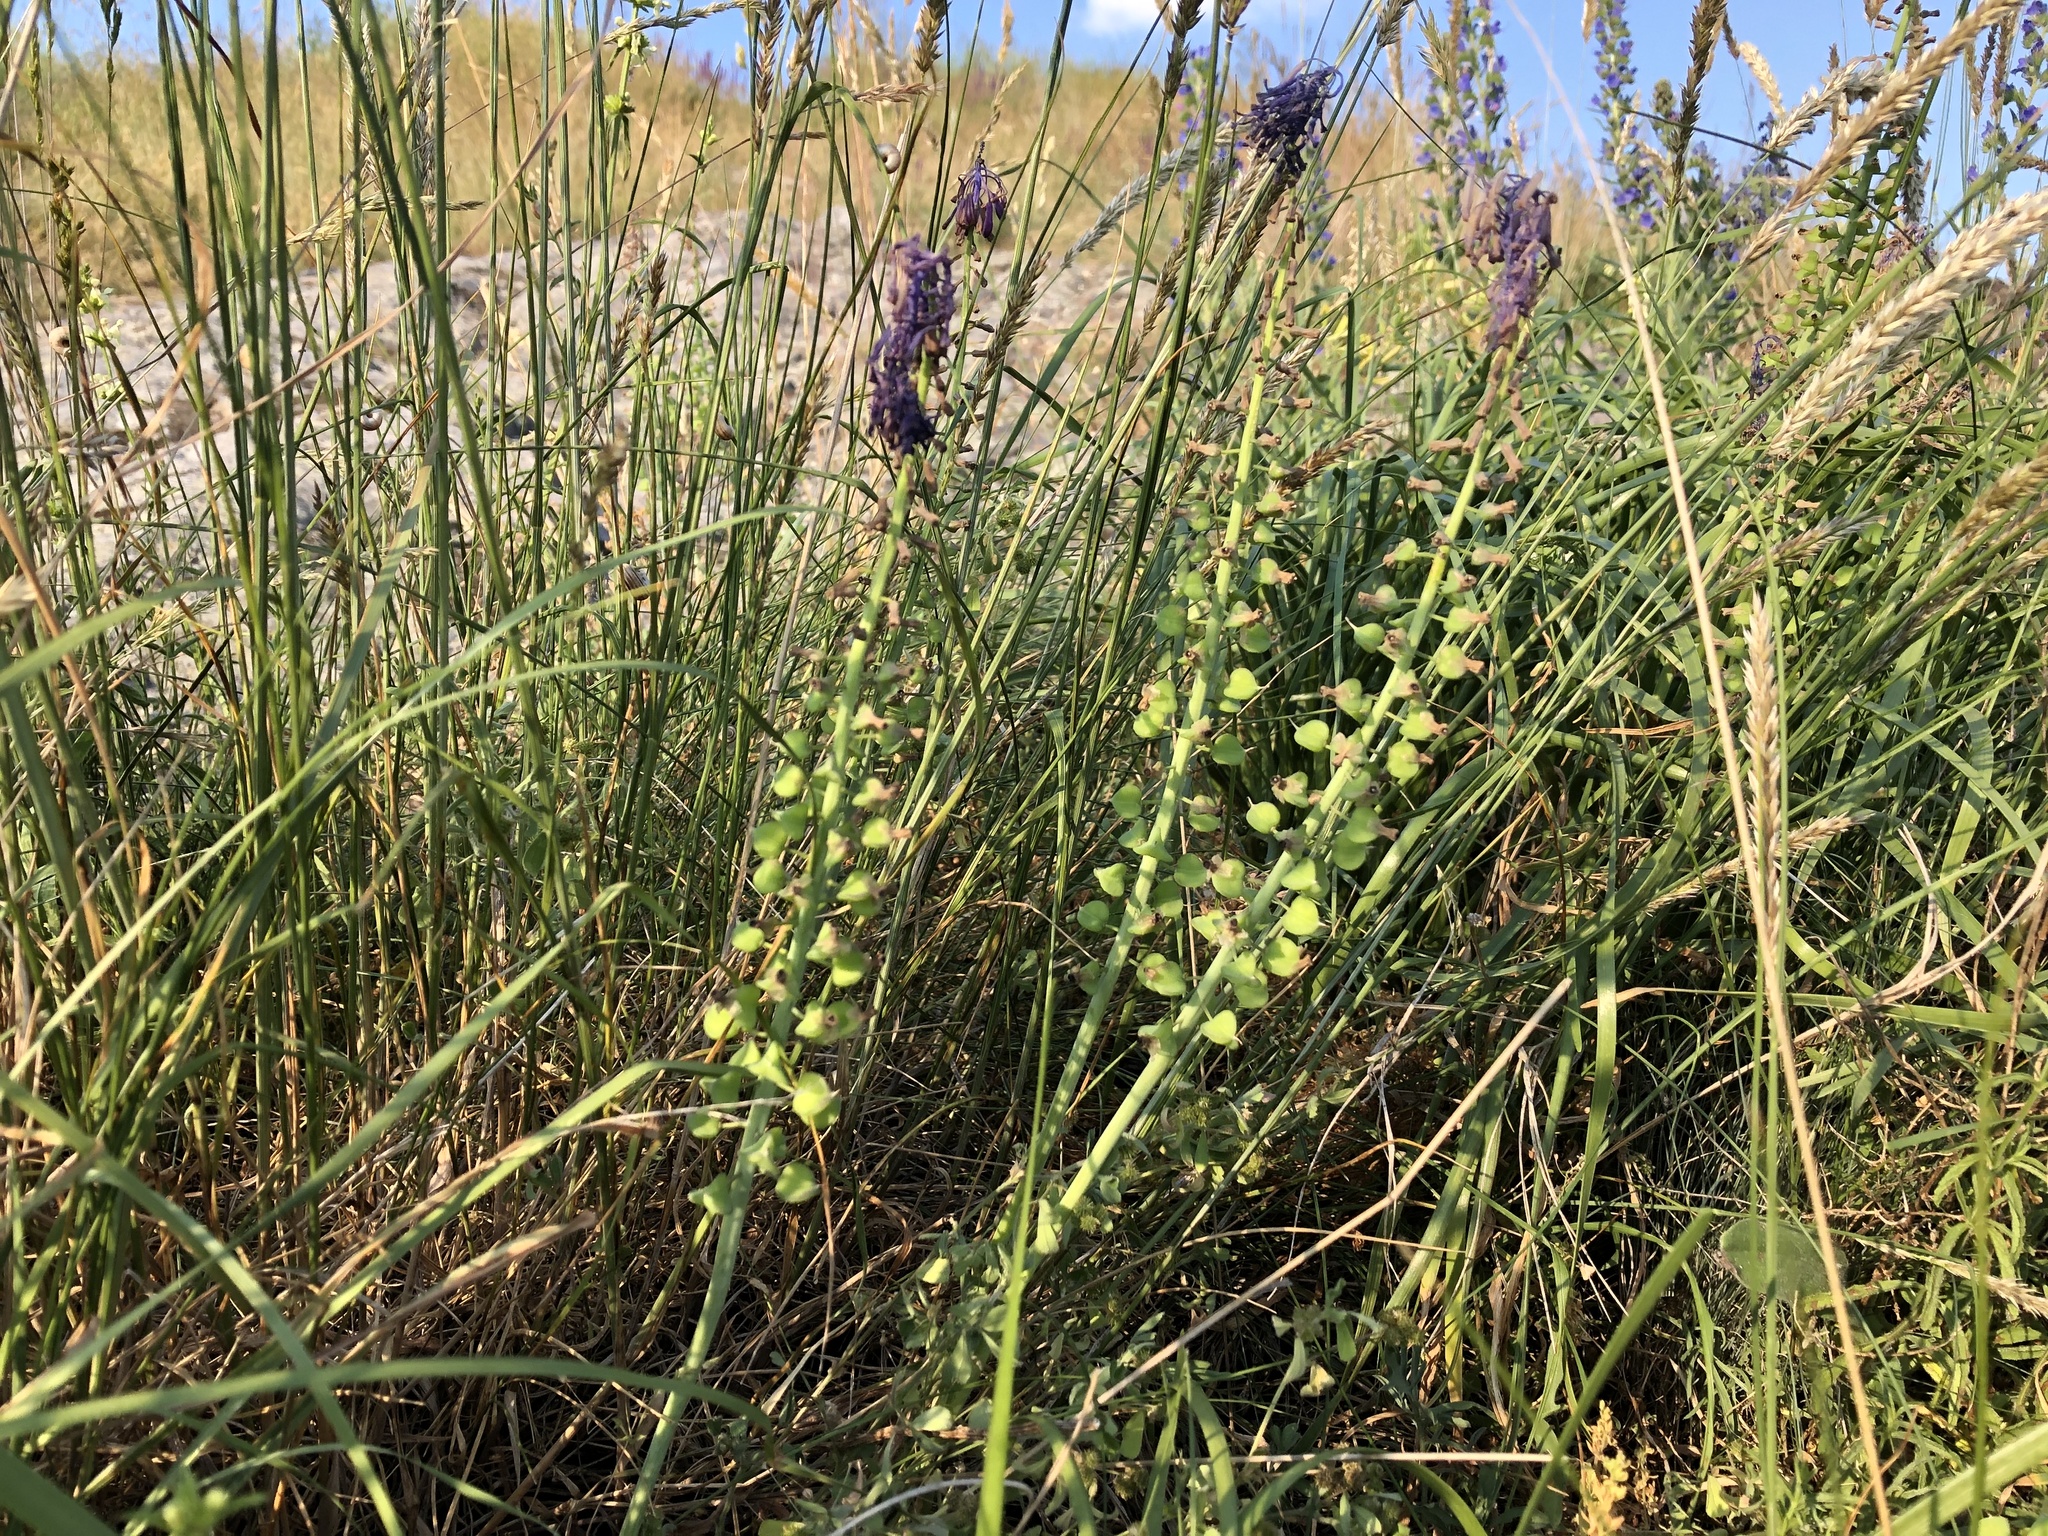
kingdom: Plantae
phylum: Tracheophyta
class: Liliopsida
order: Asparagales
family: Asparagaceae
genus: Muscari
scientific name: Muscari tenuiflorum
